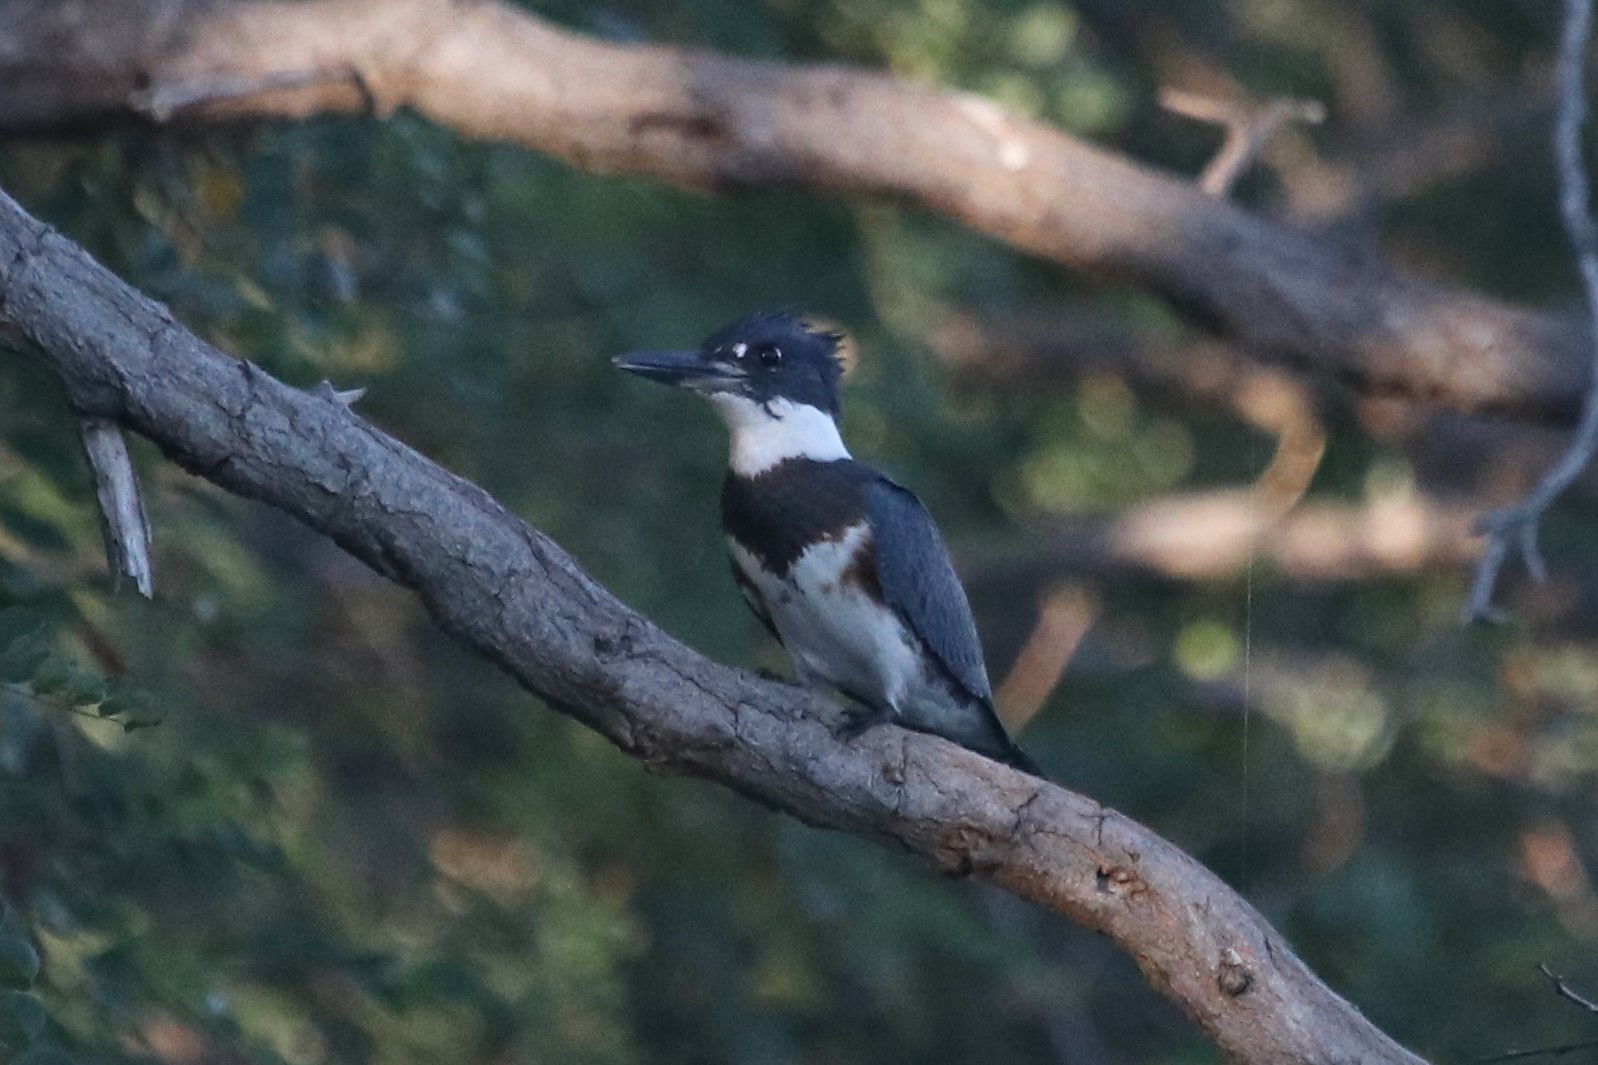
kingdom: Animalia
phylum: Chordata
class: Aves
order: Coraciiformes
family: Alcedinidae
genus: Megaceryle
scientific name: Megaceryle alcyon
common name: Belted kingfisher
